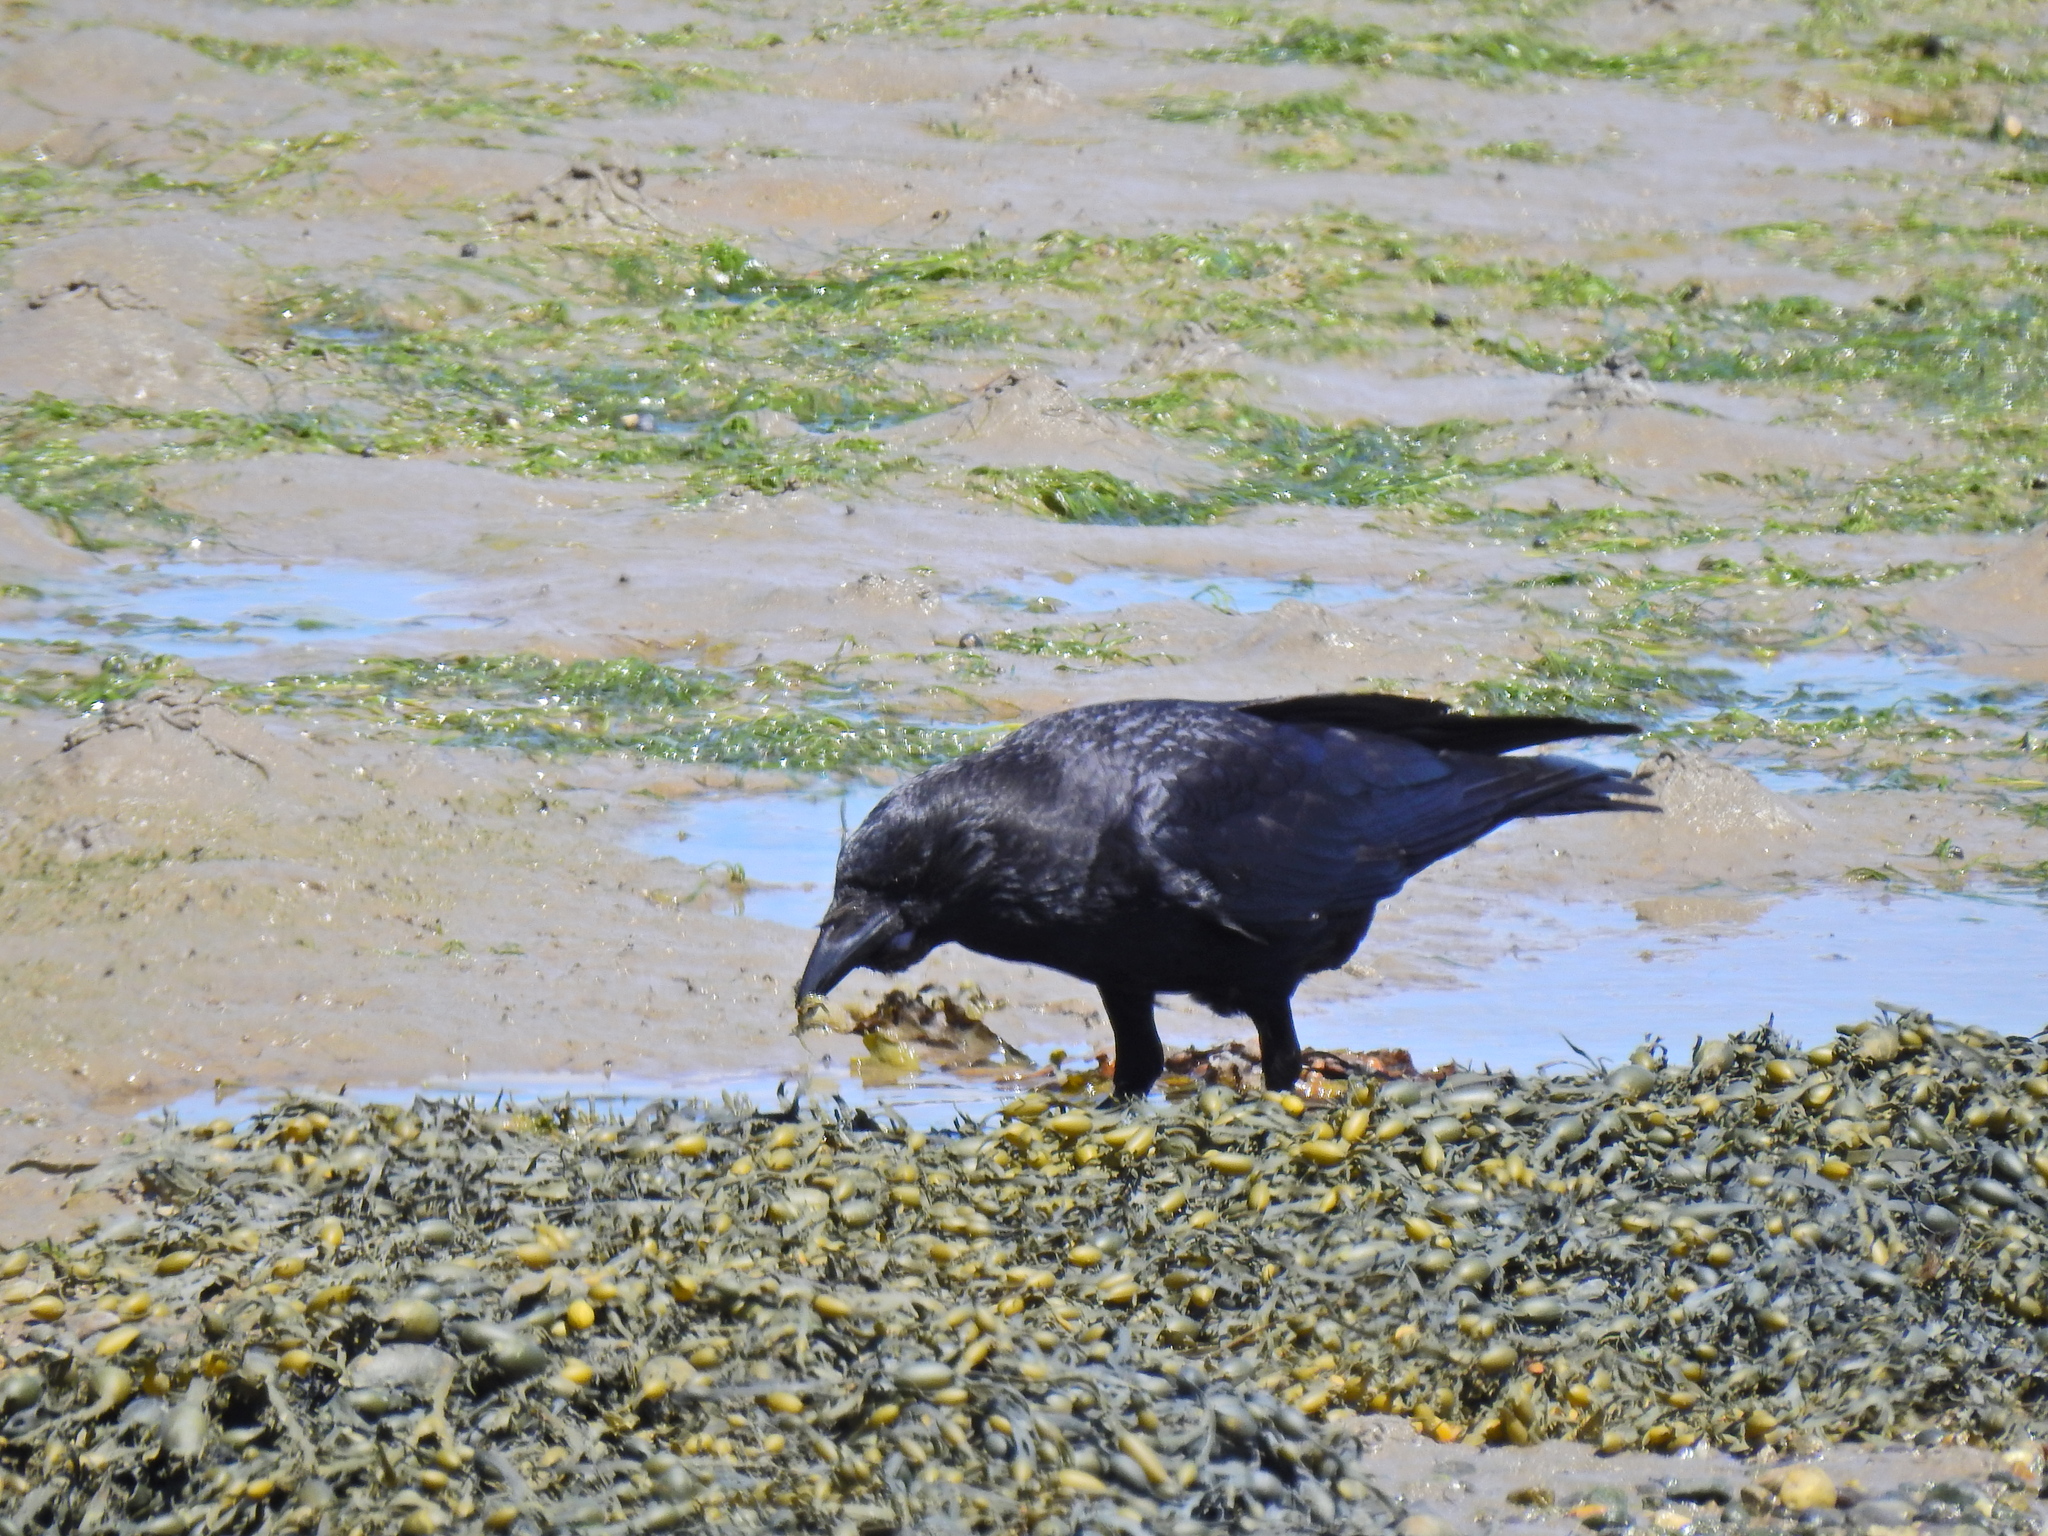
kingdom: Animalia
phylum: Chordata
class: Aves
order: Passeriformes
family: Corvidae
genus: Corvus
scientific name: Corvus corone
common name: Carrion crow
